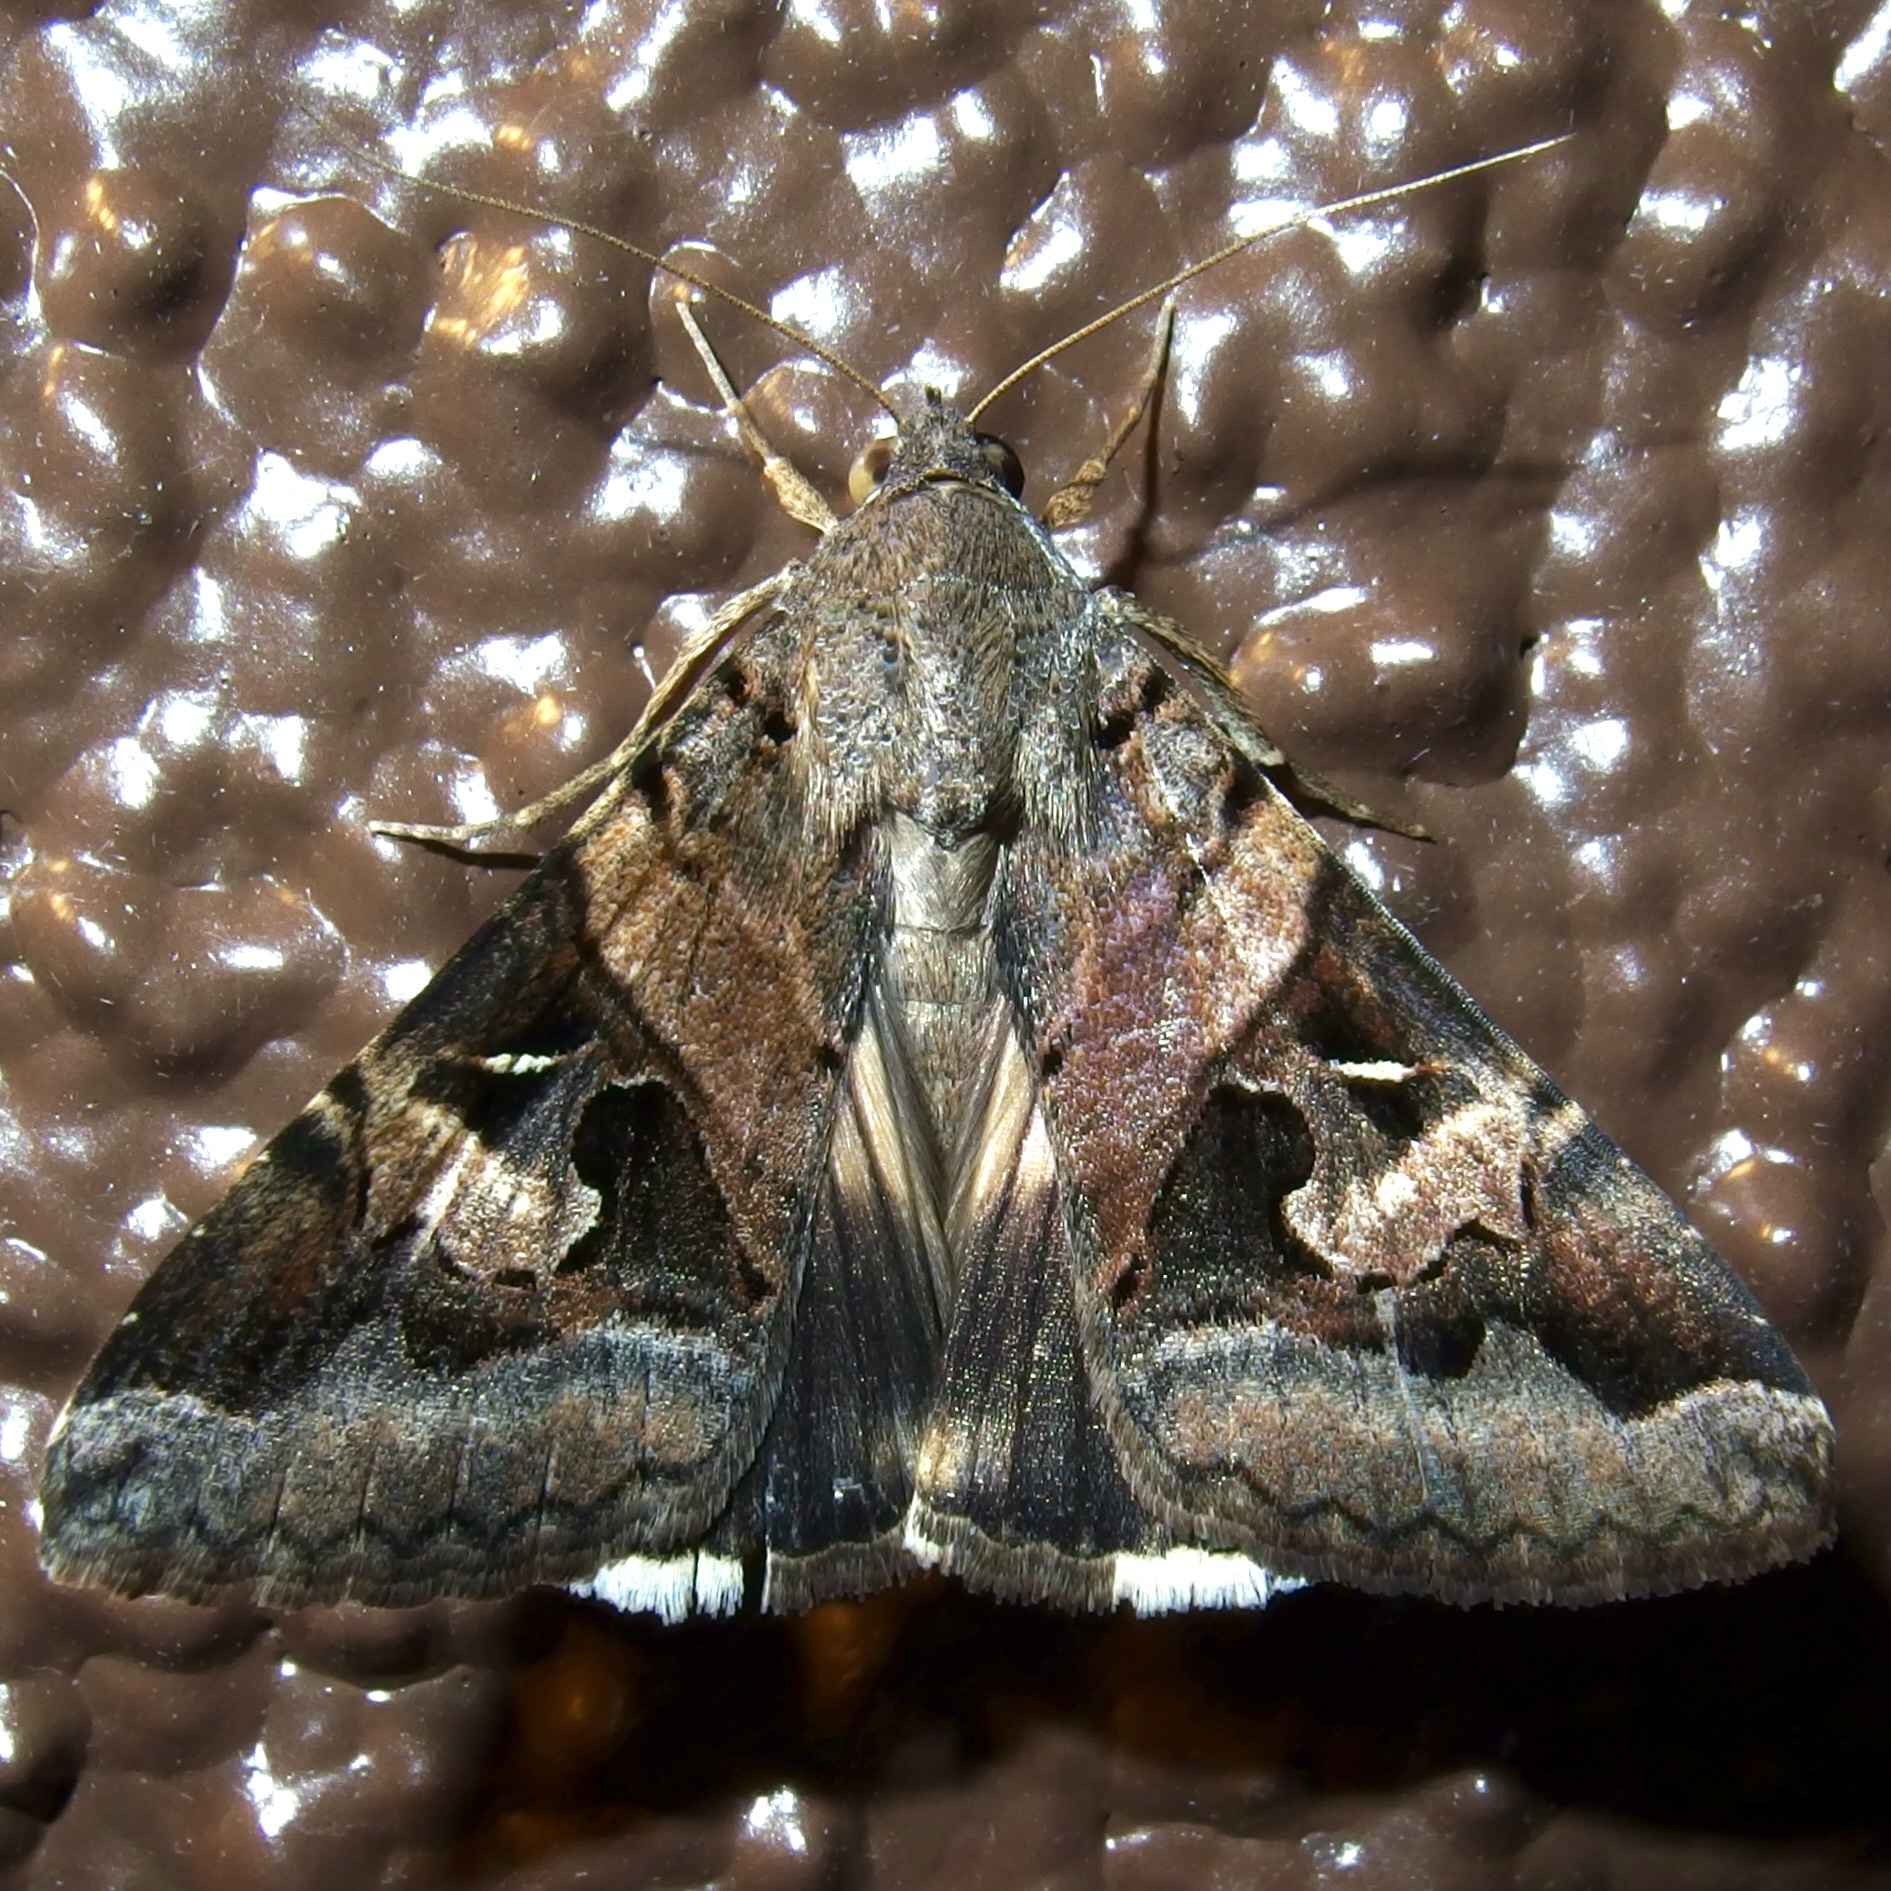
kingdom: Animalia
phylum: Arthropoda
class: Insecta
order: Lepidoptera
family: Erebidae
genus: Melipotis
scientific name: Melipotis indomita
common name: Moth
